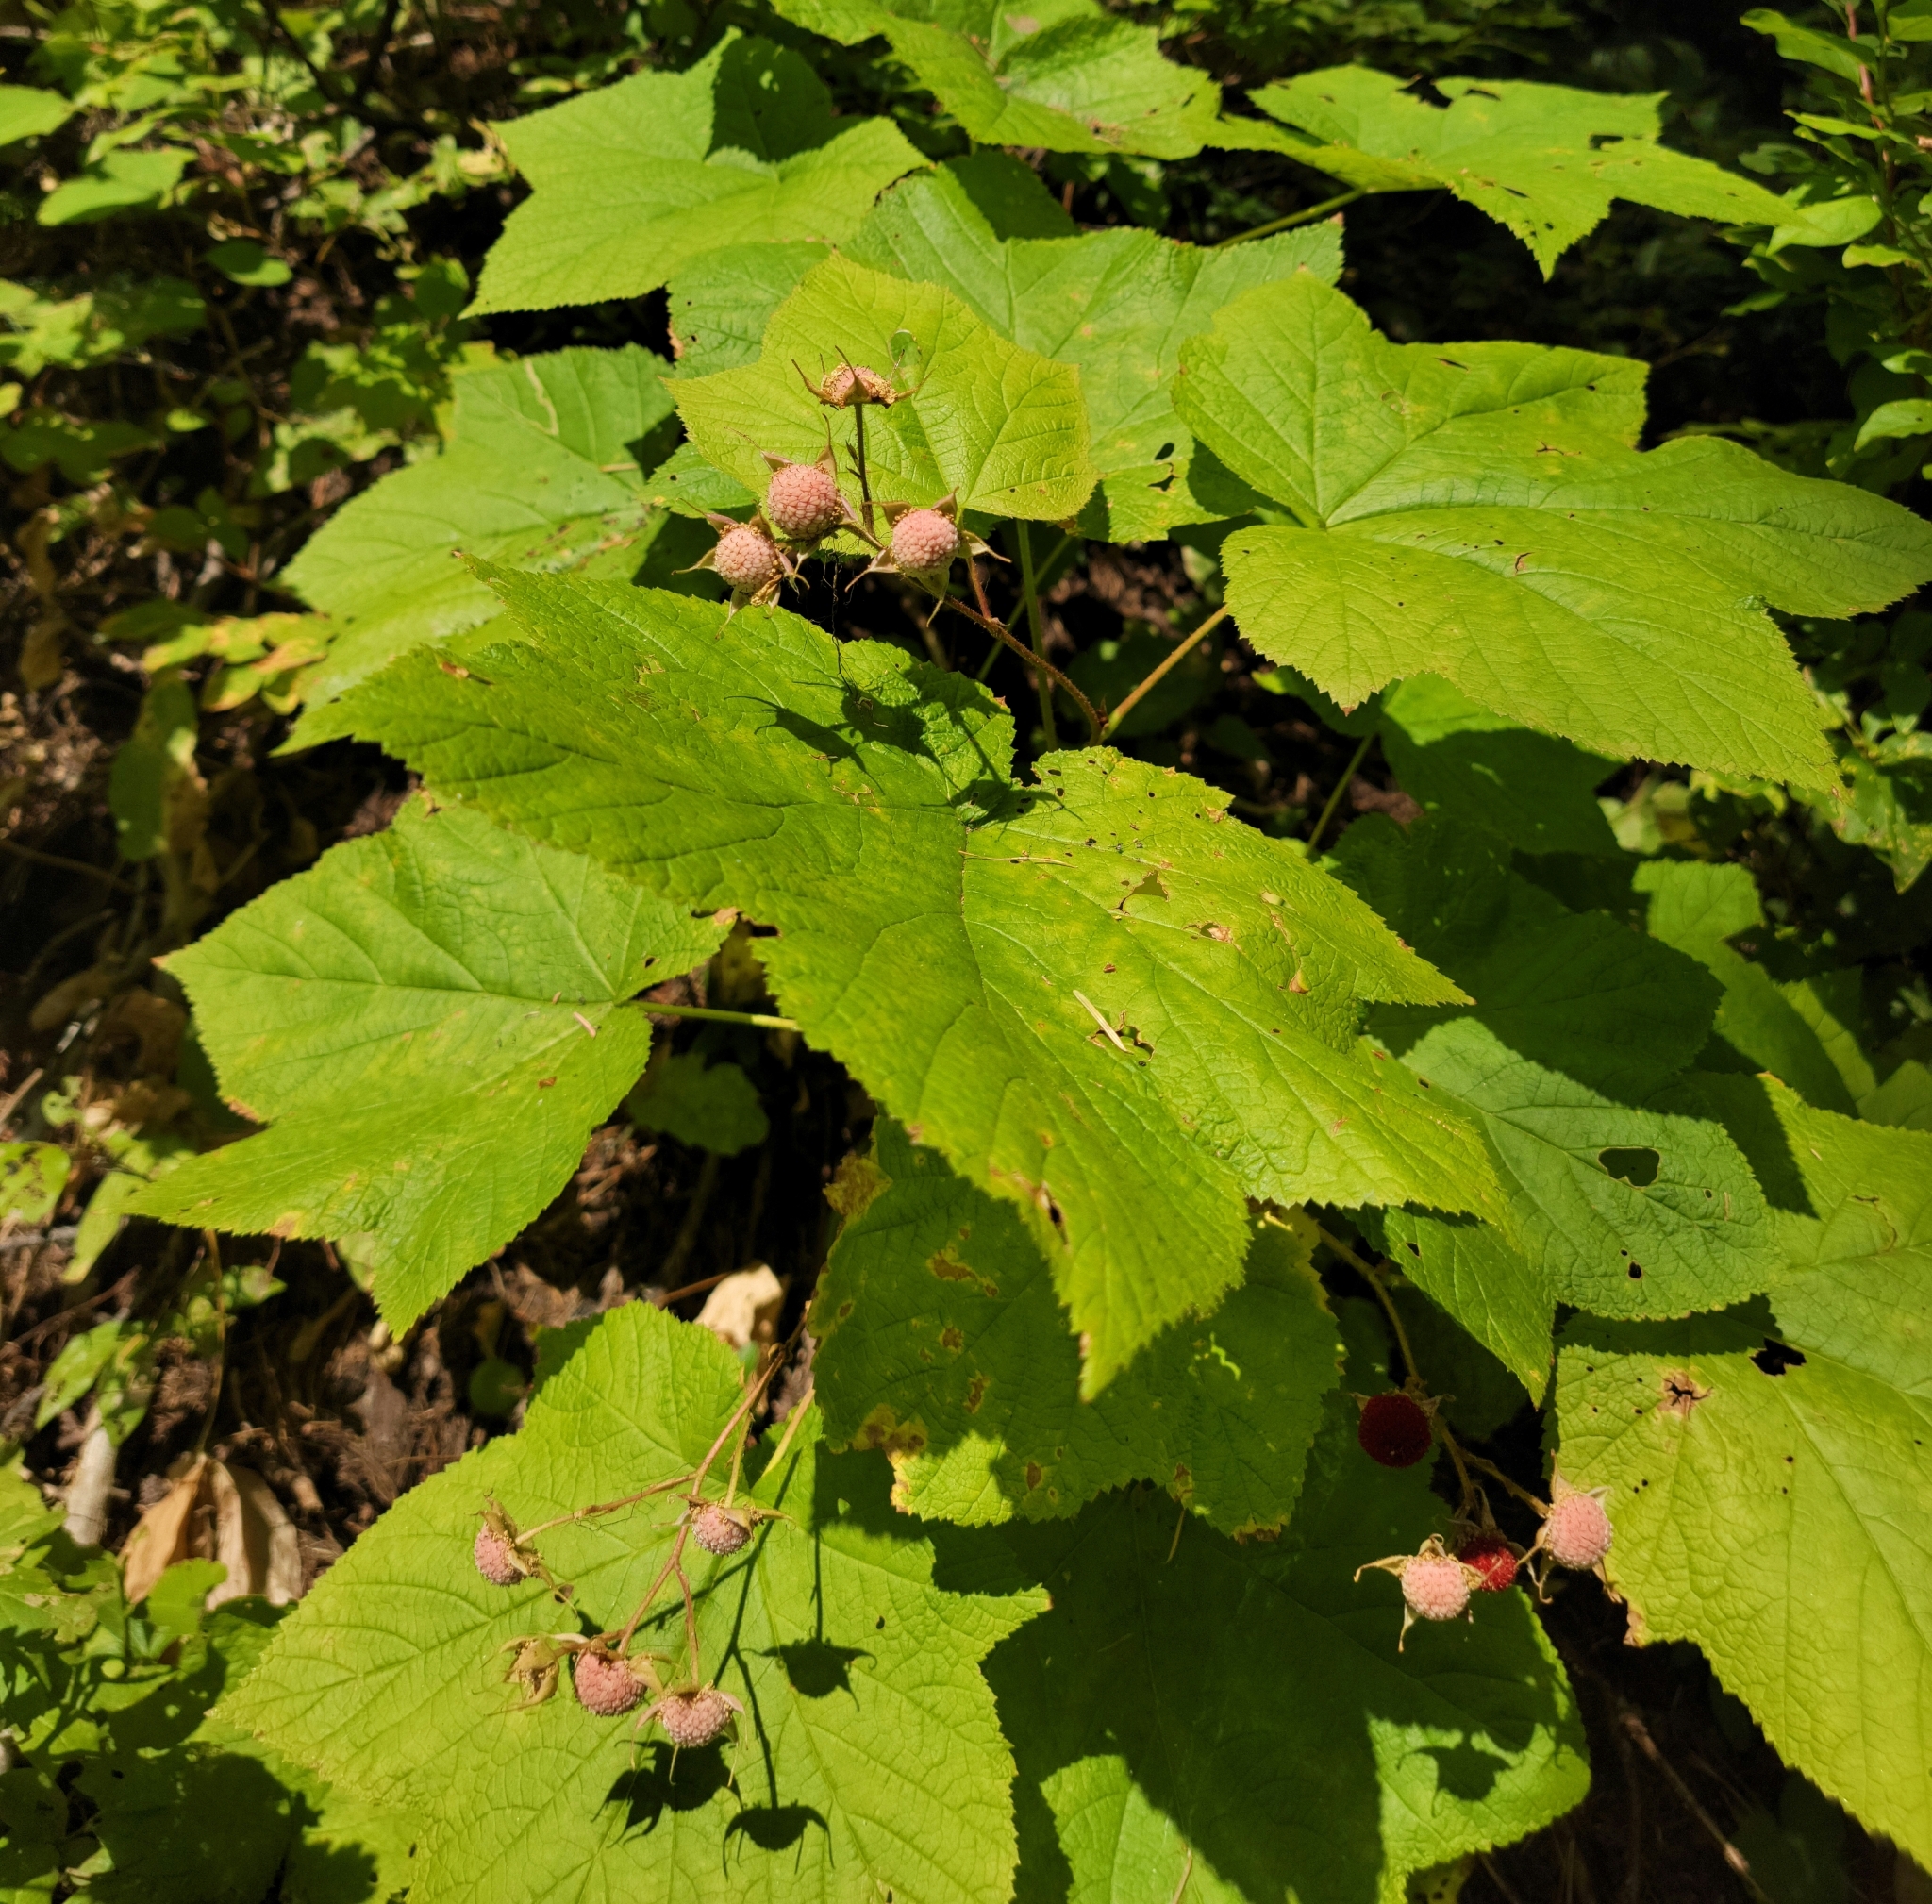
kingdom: Plantae
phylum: Tracheophyta
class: Magnoliopsida
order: Rosales
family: Rosaceae
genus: Rubus
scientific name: Rubus parviflorus
